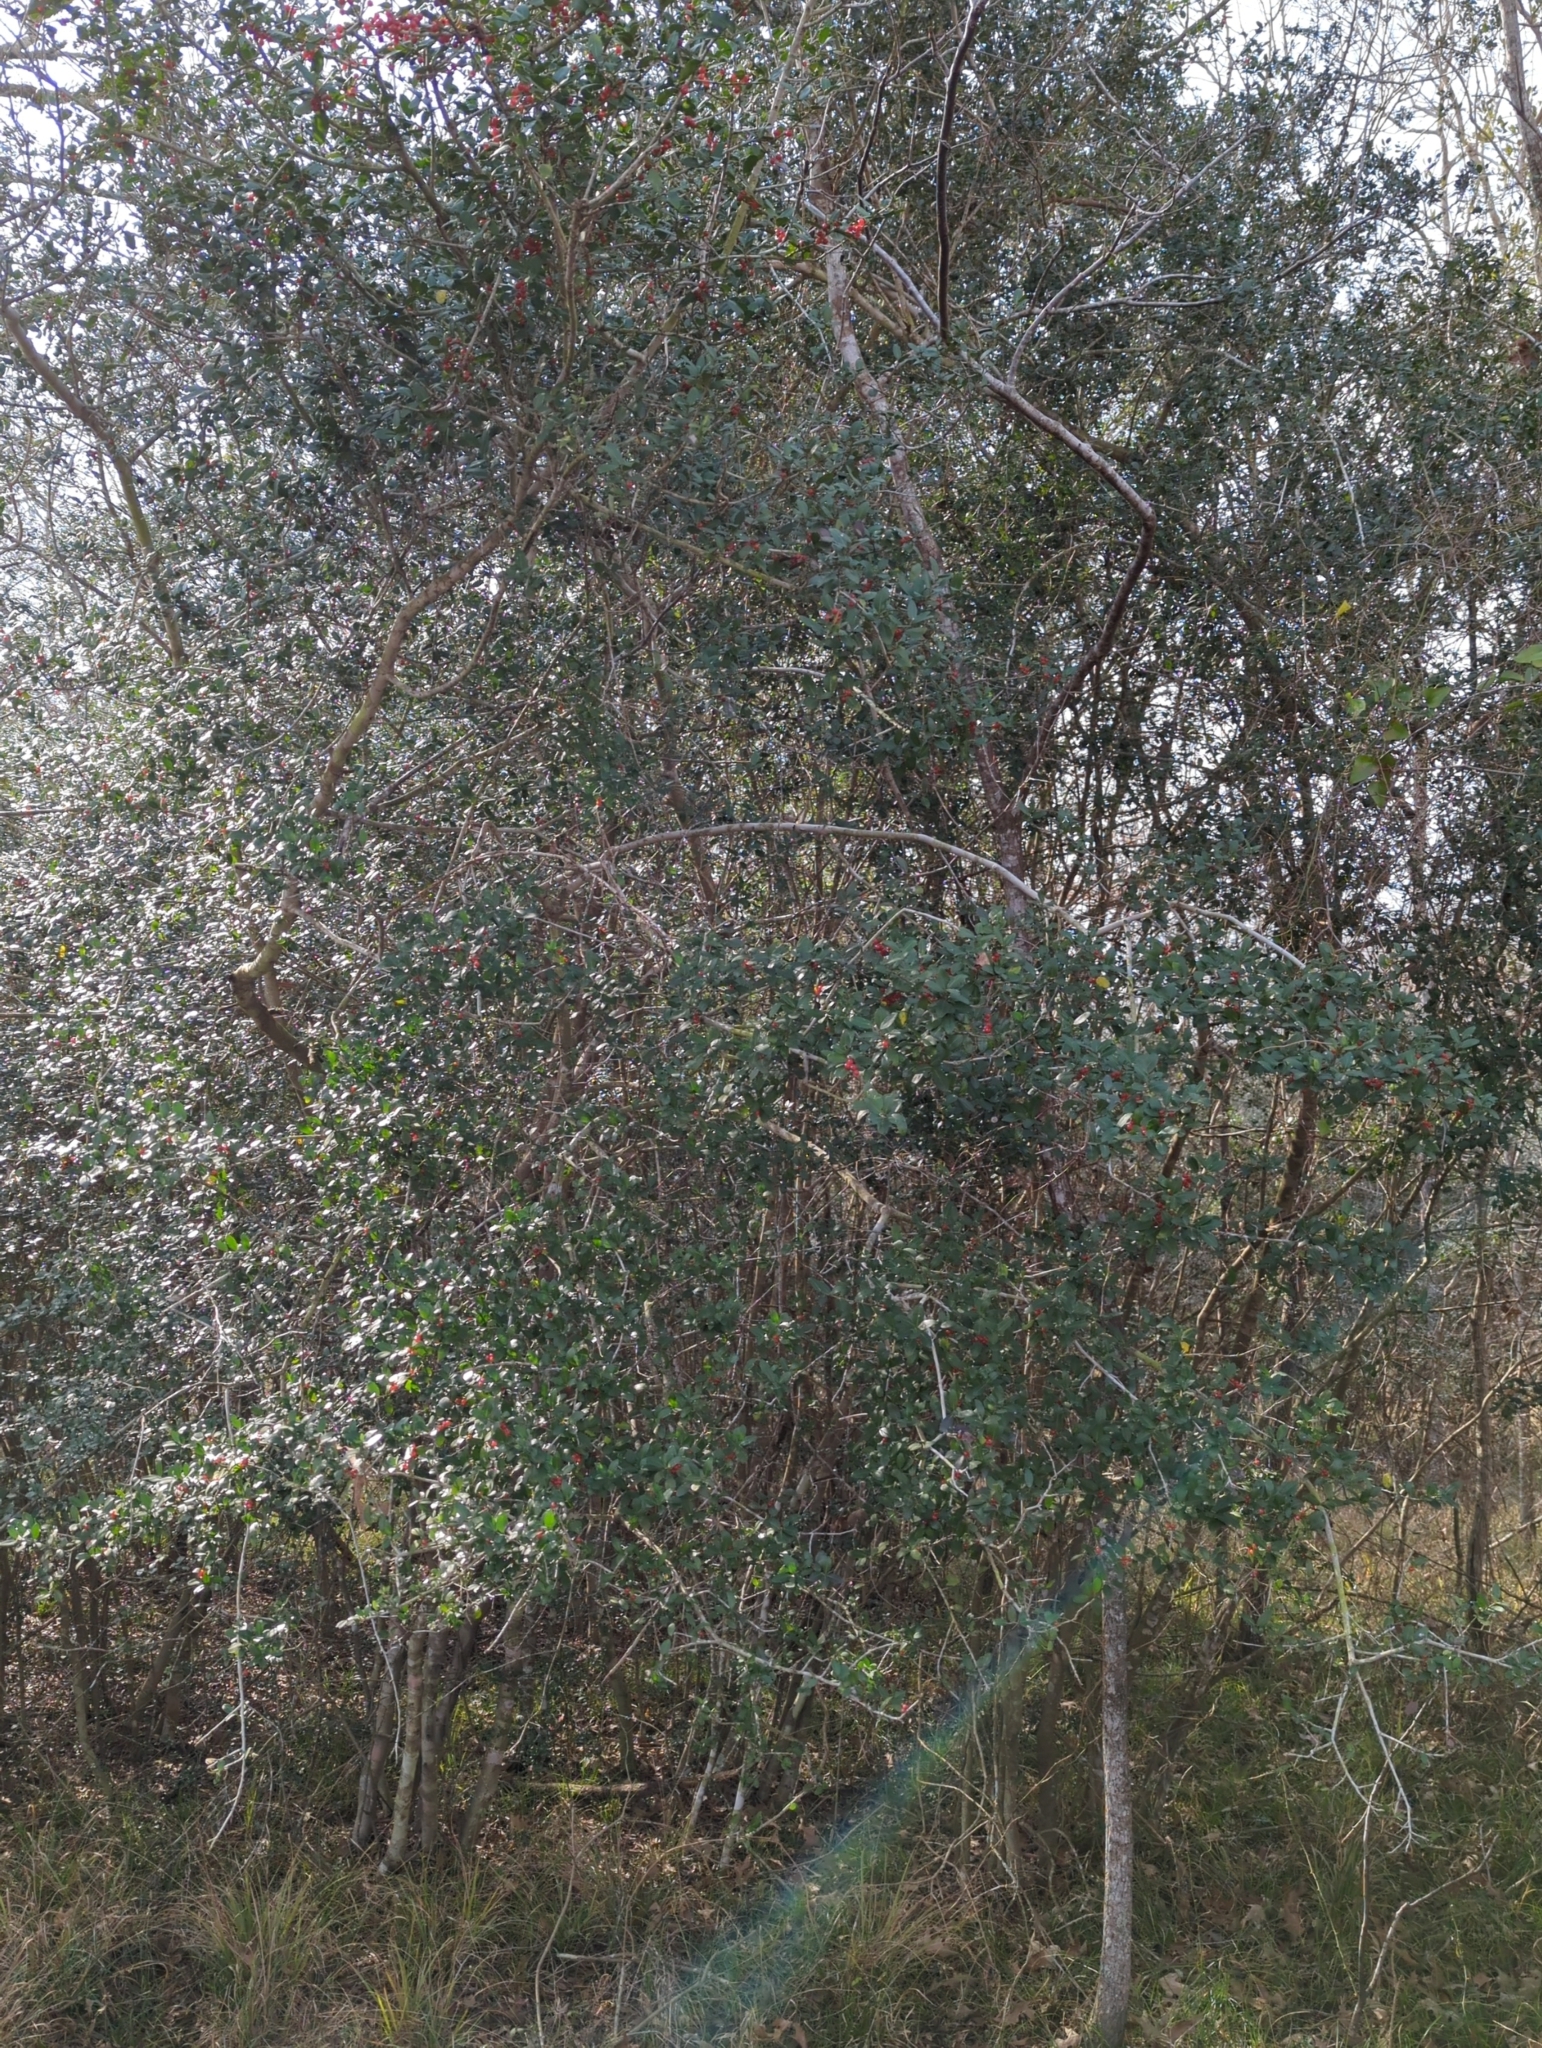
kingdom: Plantae
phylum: Tracheophyta
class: Magnoliopsida
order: Aquifoliales
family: Aquifoliaceae
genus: Ilex
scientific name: Ilex vomitoria
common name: Yaupon holly
